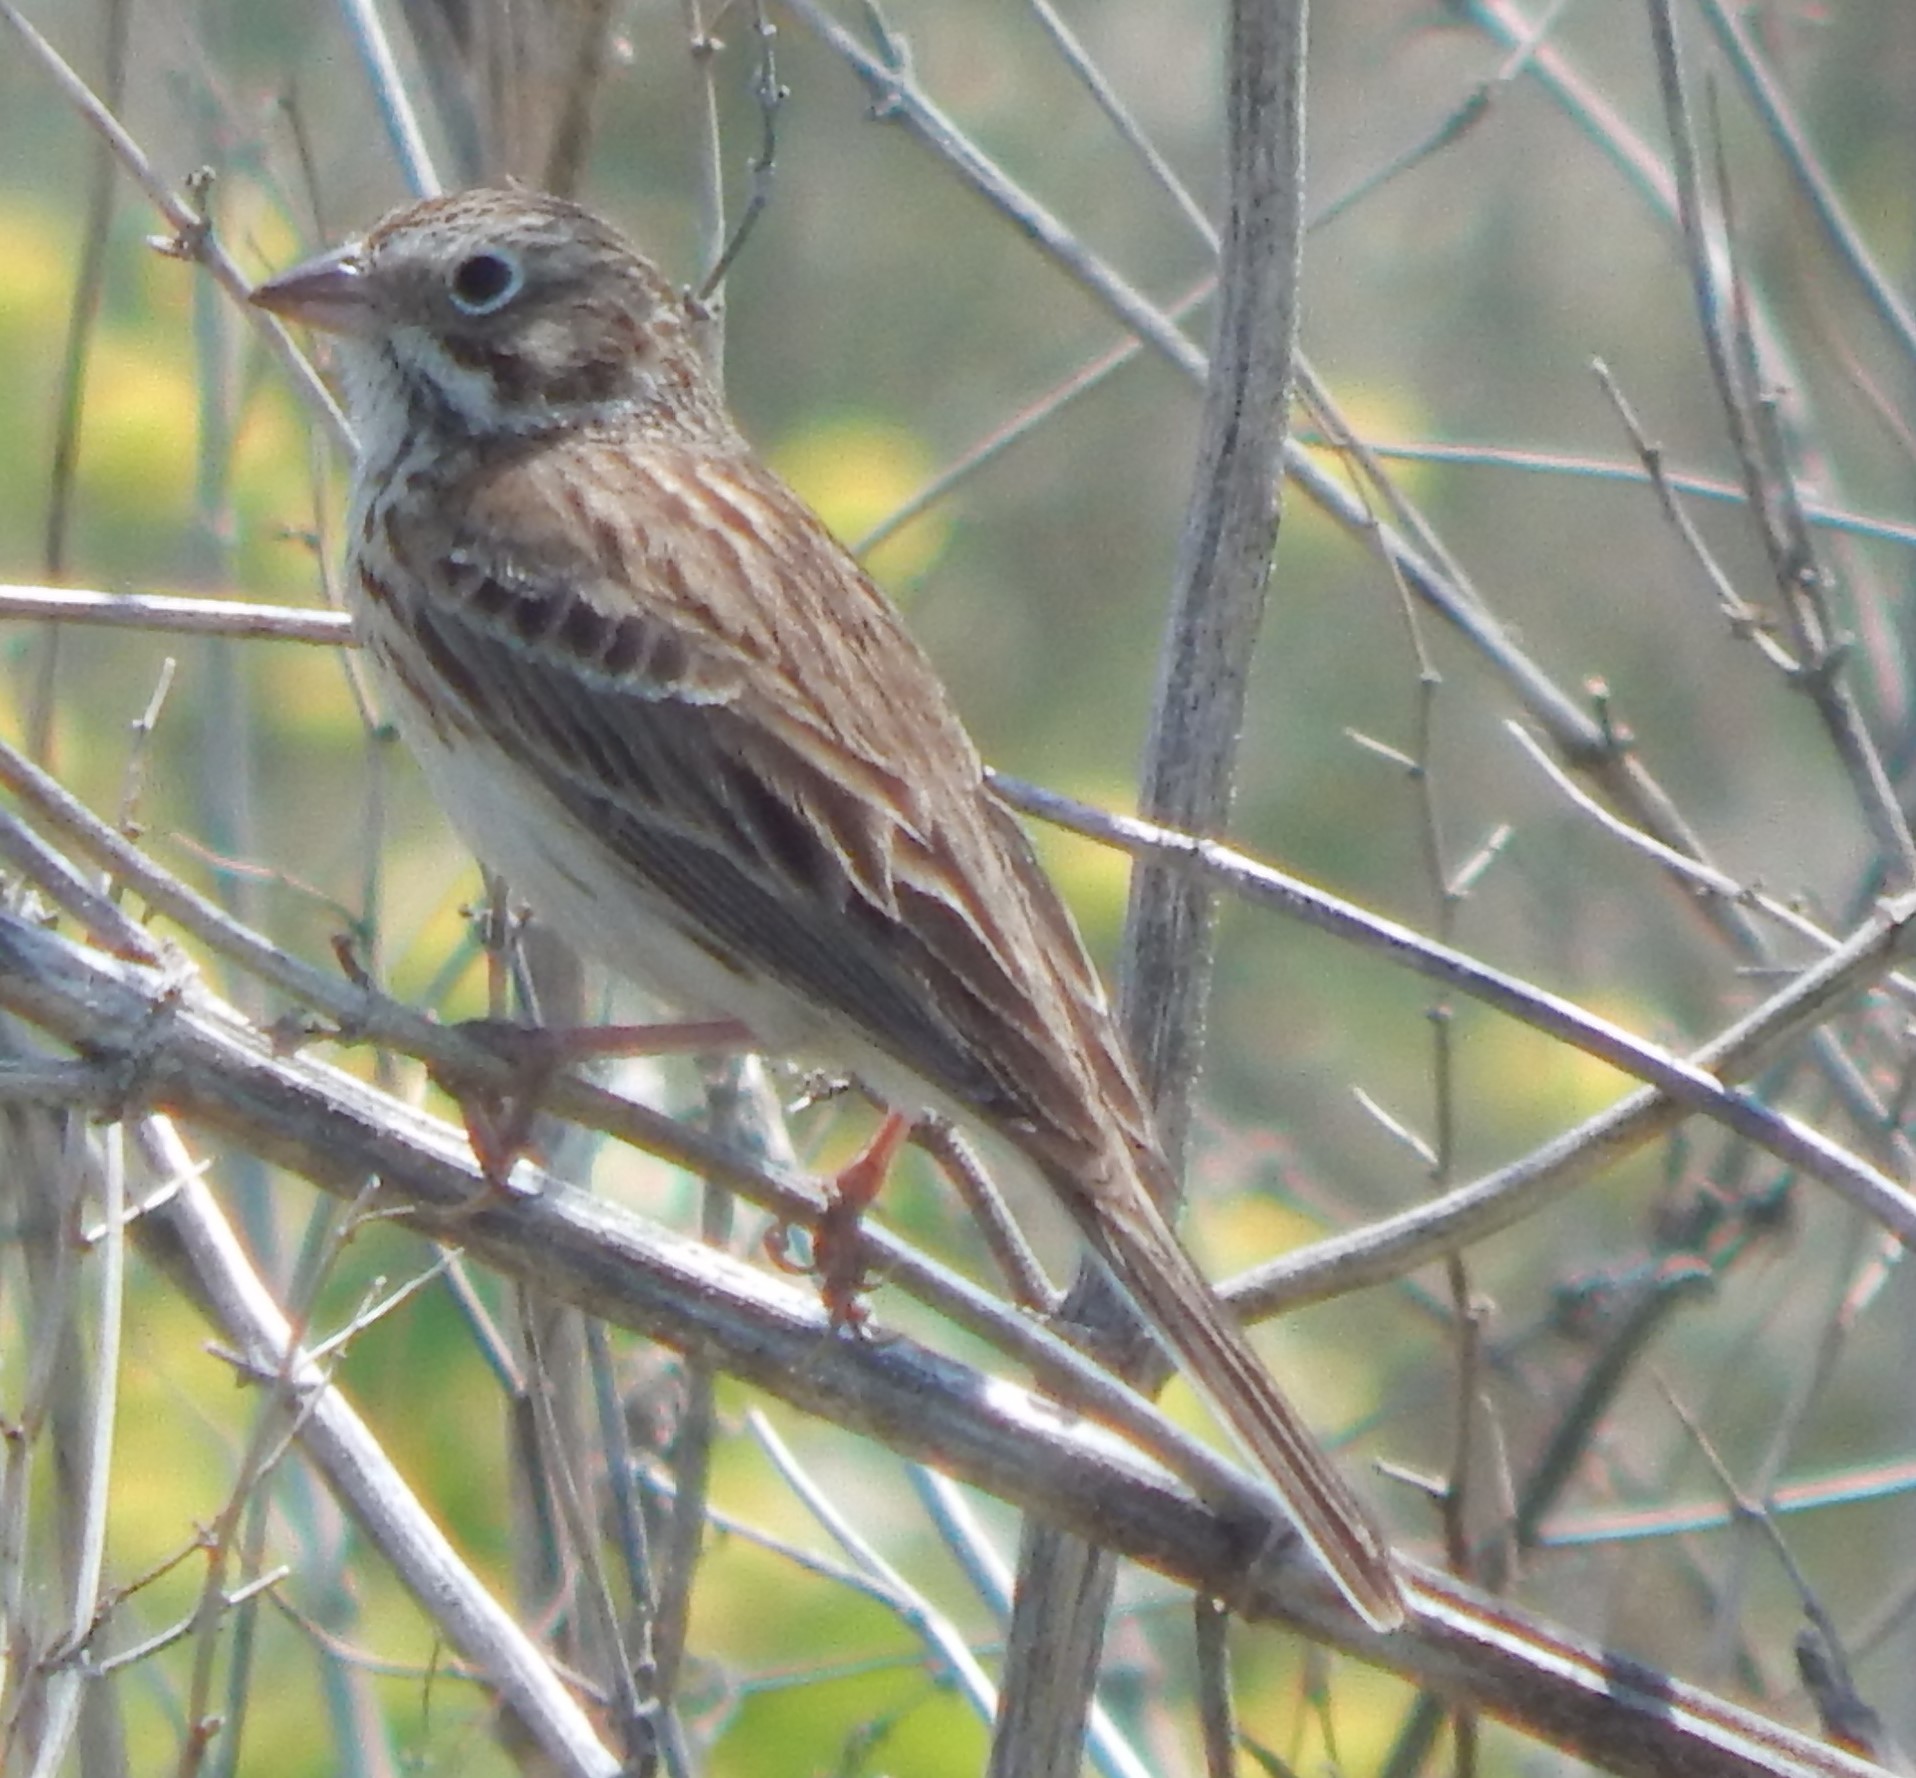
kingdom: Animalia
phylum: Chordata
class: Aves
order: Passeriformes
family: Passerellidae
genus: Pooecetes
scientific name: Pooecetes gramineus
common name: Vesper sparrow
